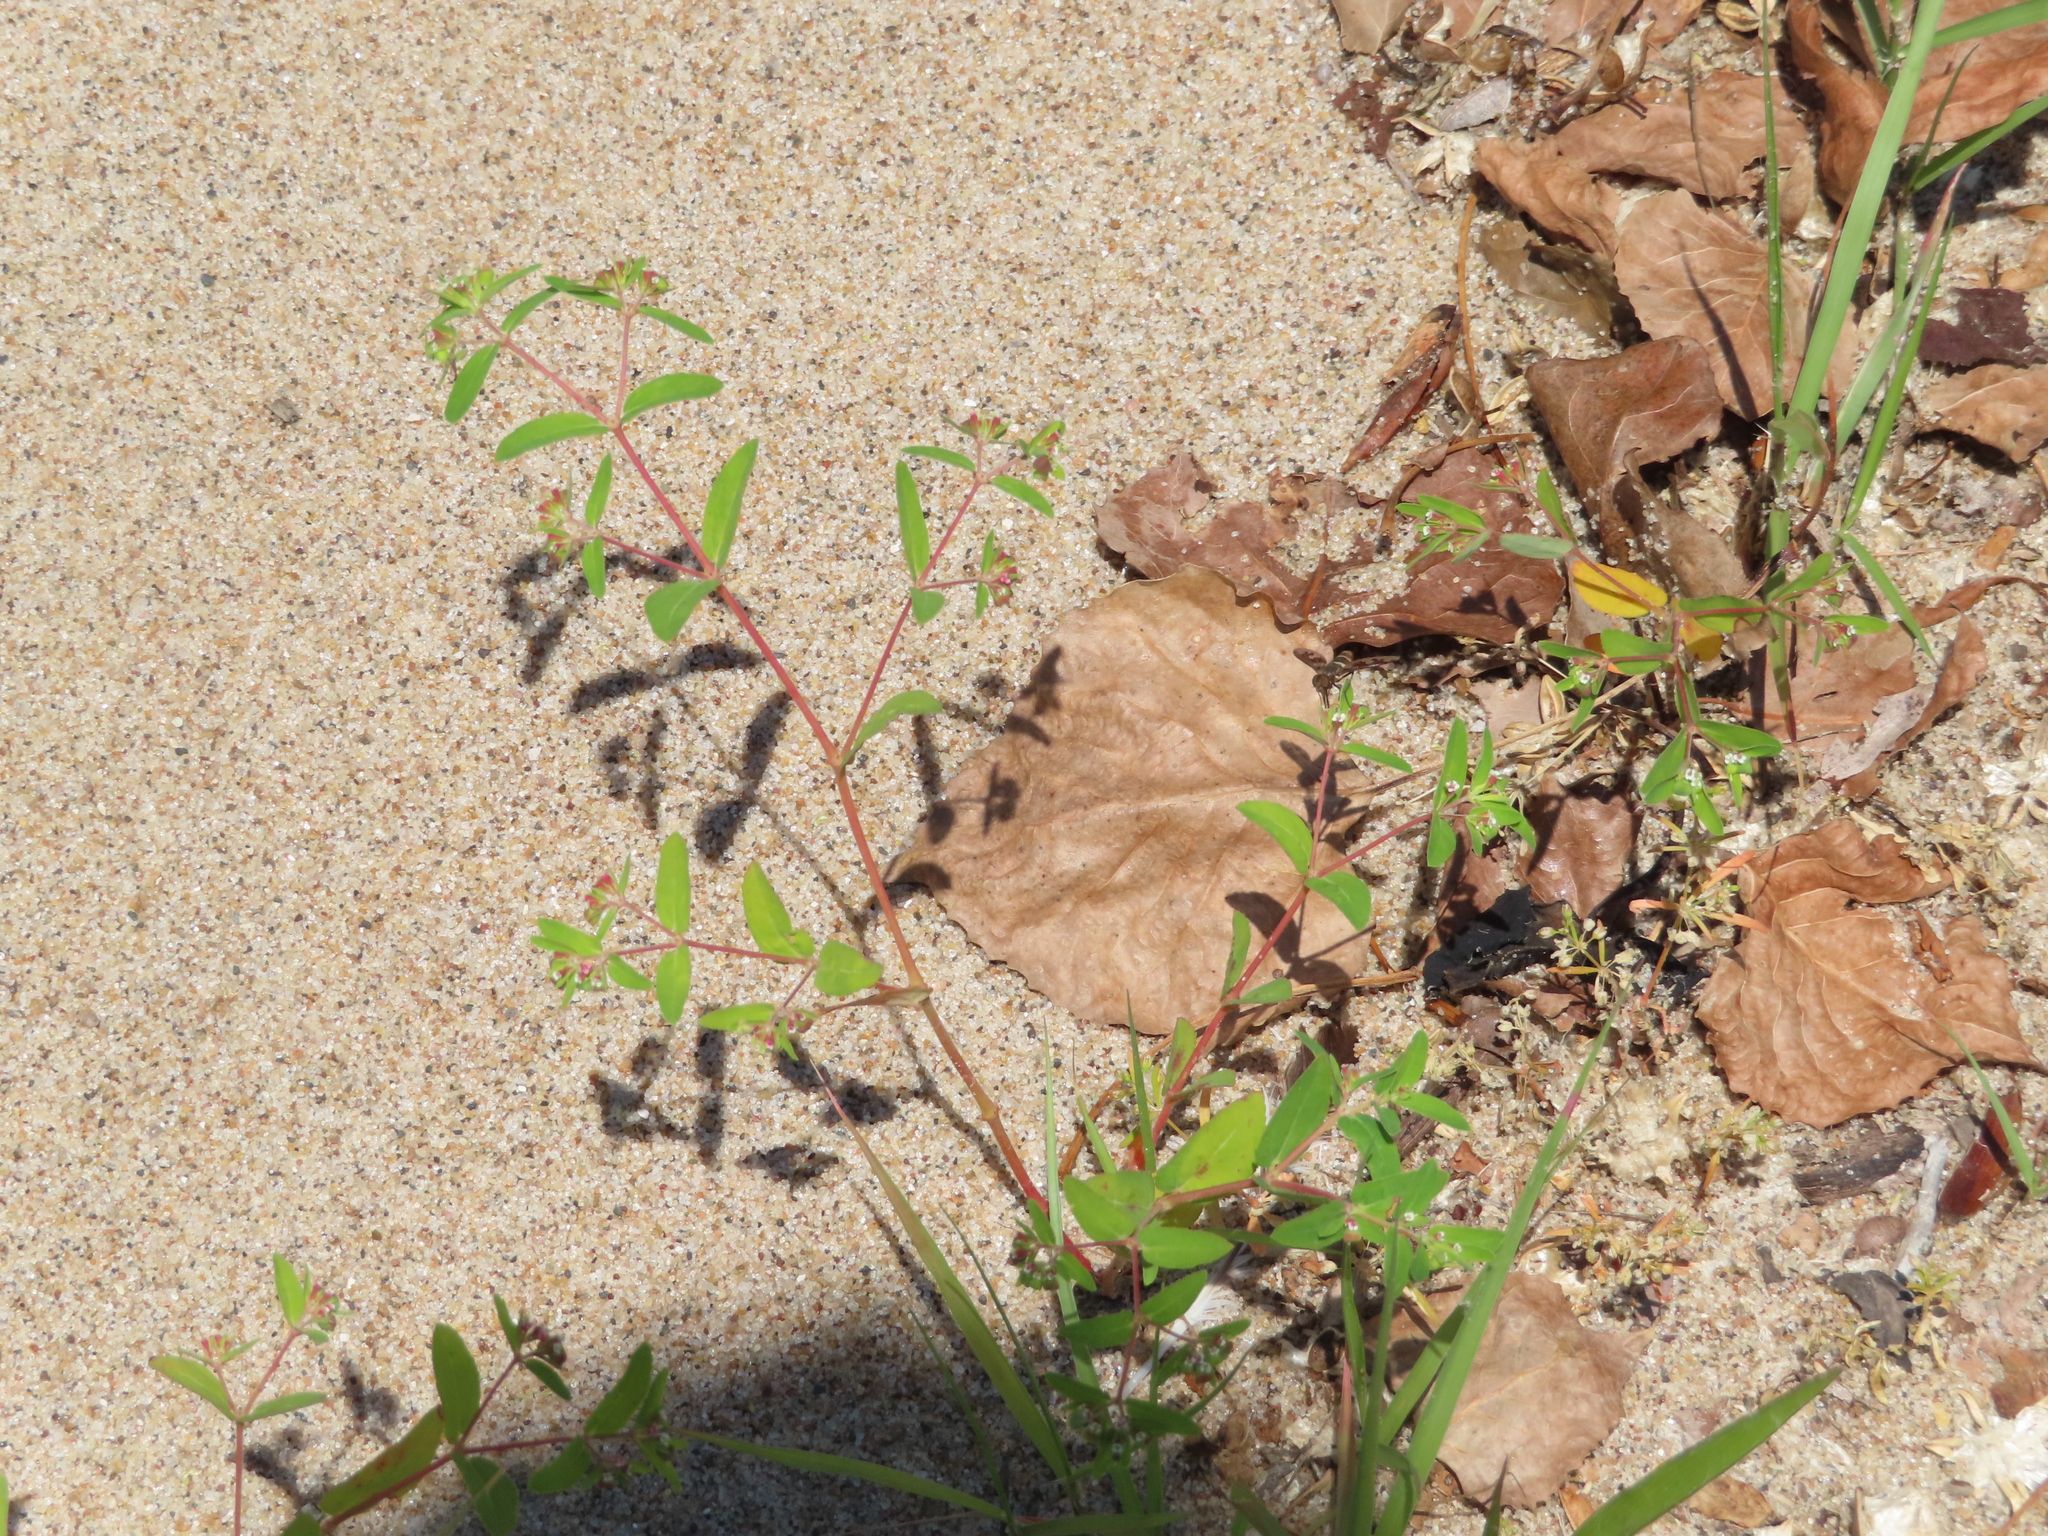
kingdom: Plantae
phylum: Tracheophyta
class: Magnoliopsida
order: Malpighiales
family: Euphorbiaceae
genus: Euphorbia
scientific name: Euphorbia nutans
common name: Eyebane
